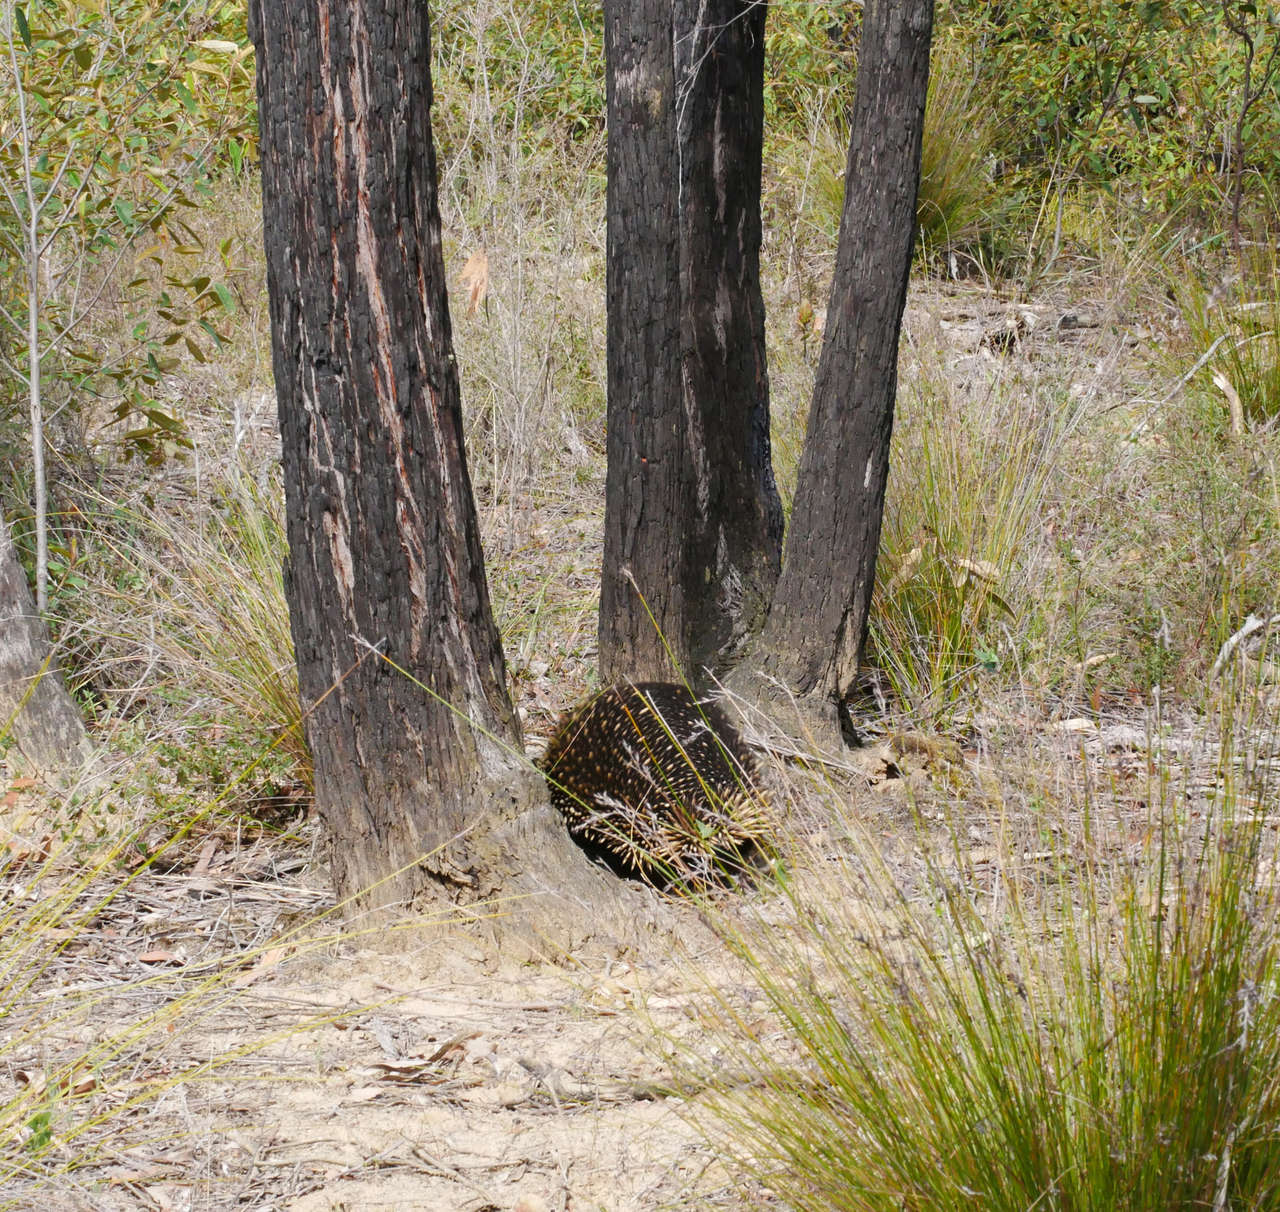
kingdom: Animalia
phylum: Chordata
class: Mammalia
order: Monotremata
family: Tachyglossidae
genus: Tachyglossus
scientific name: Tachyglossus aculeatus
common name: Short-beaked echidna
